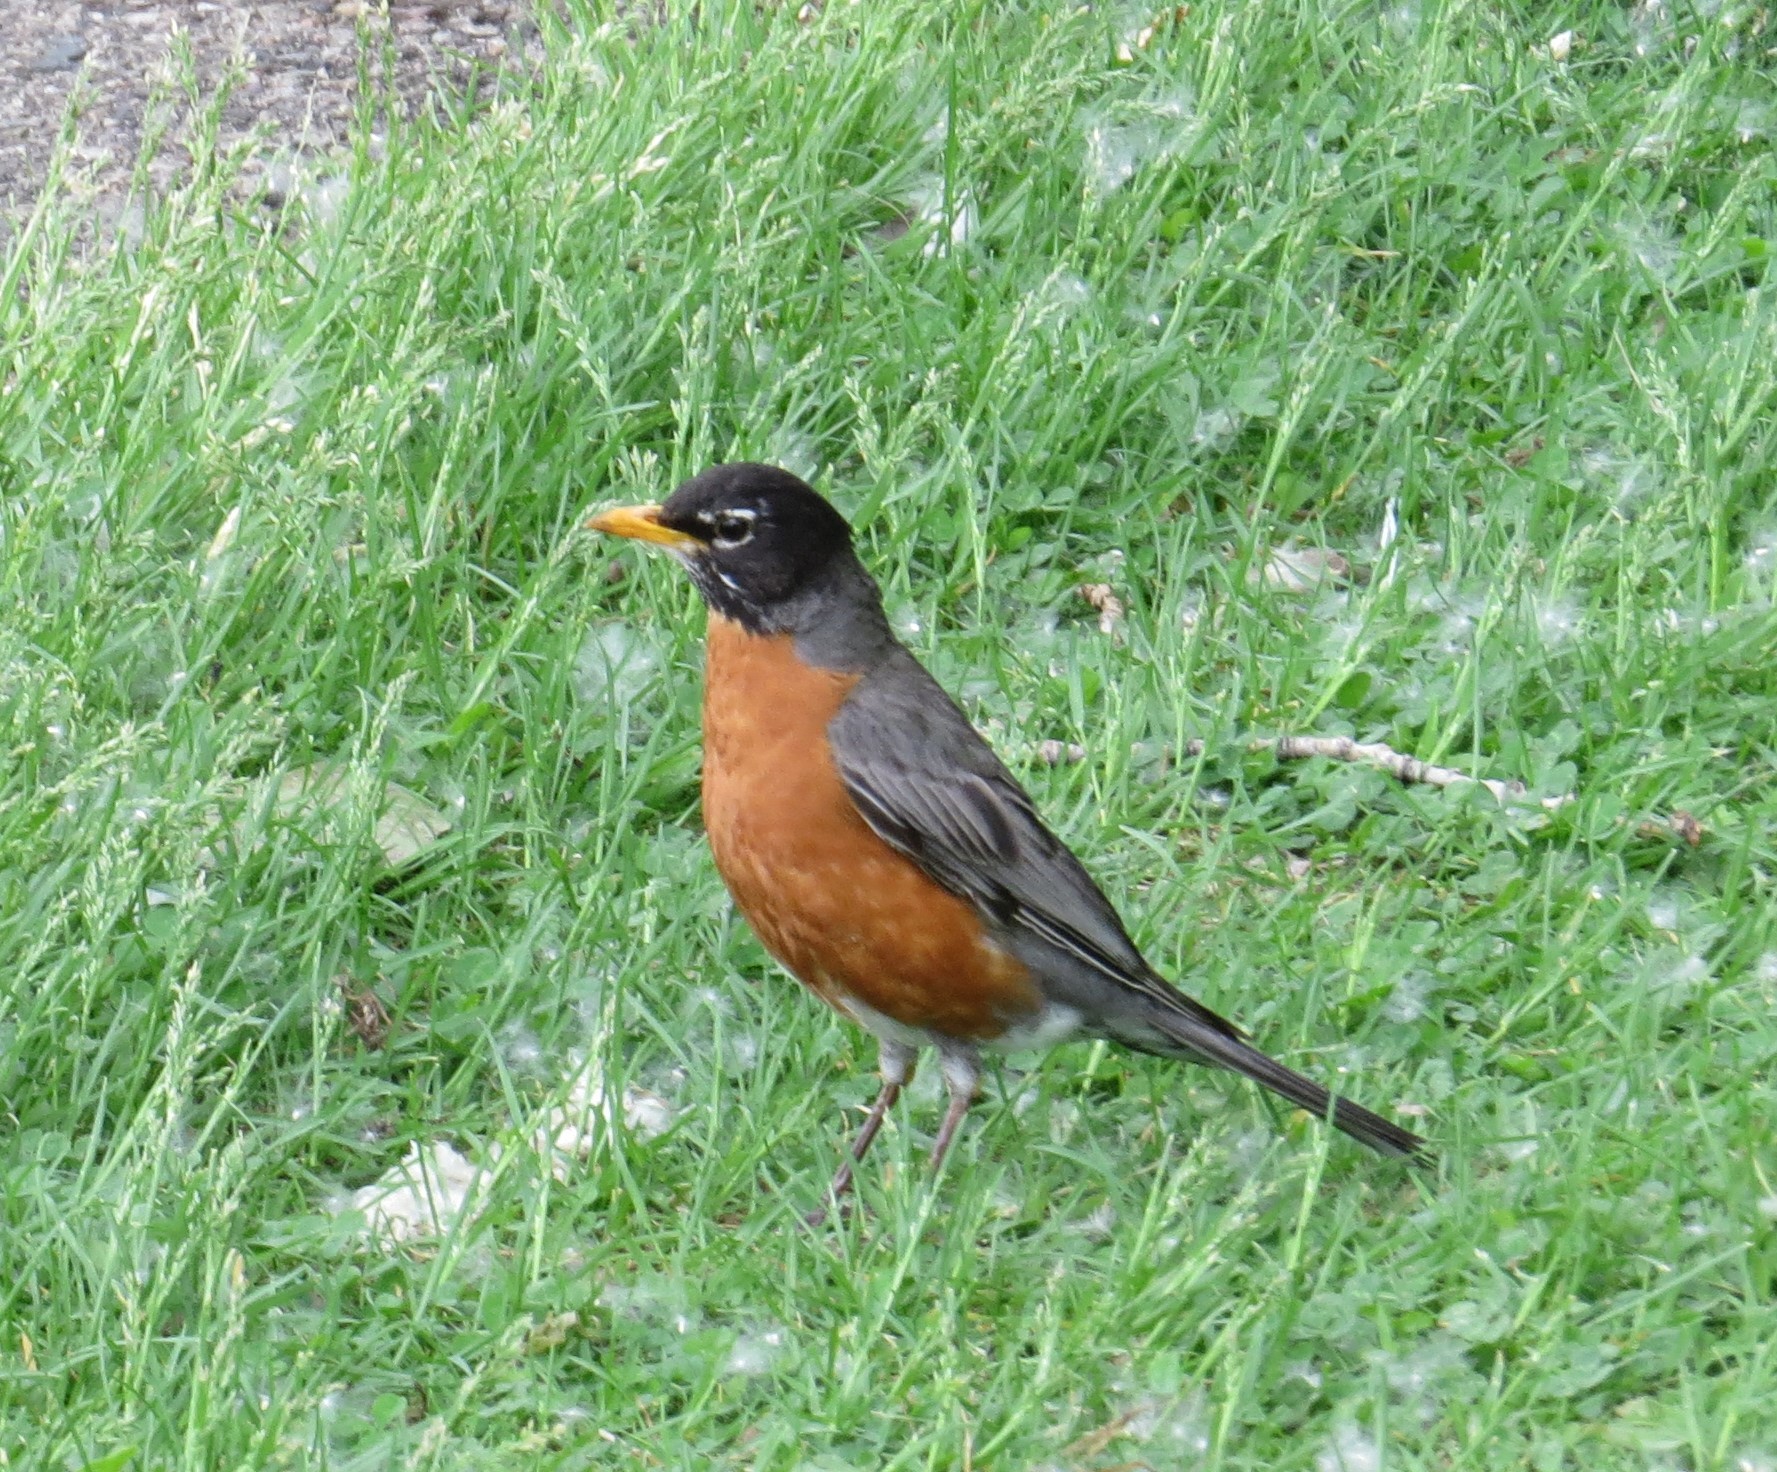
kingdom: Animalia
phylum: Chordata
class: Aves
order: Passeriformes
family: Turdidae
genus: Turdus
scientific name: Turdus migratorius
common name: American robin
